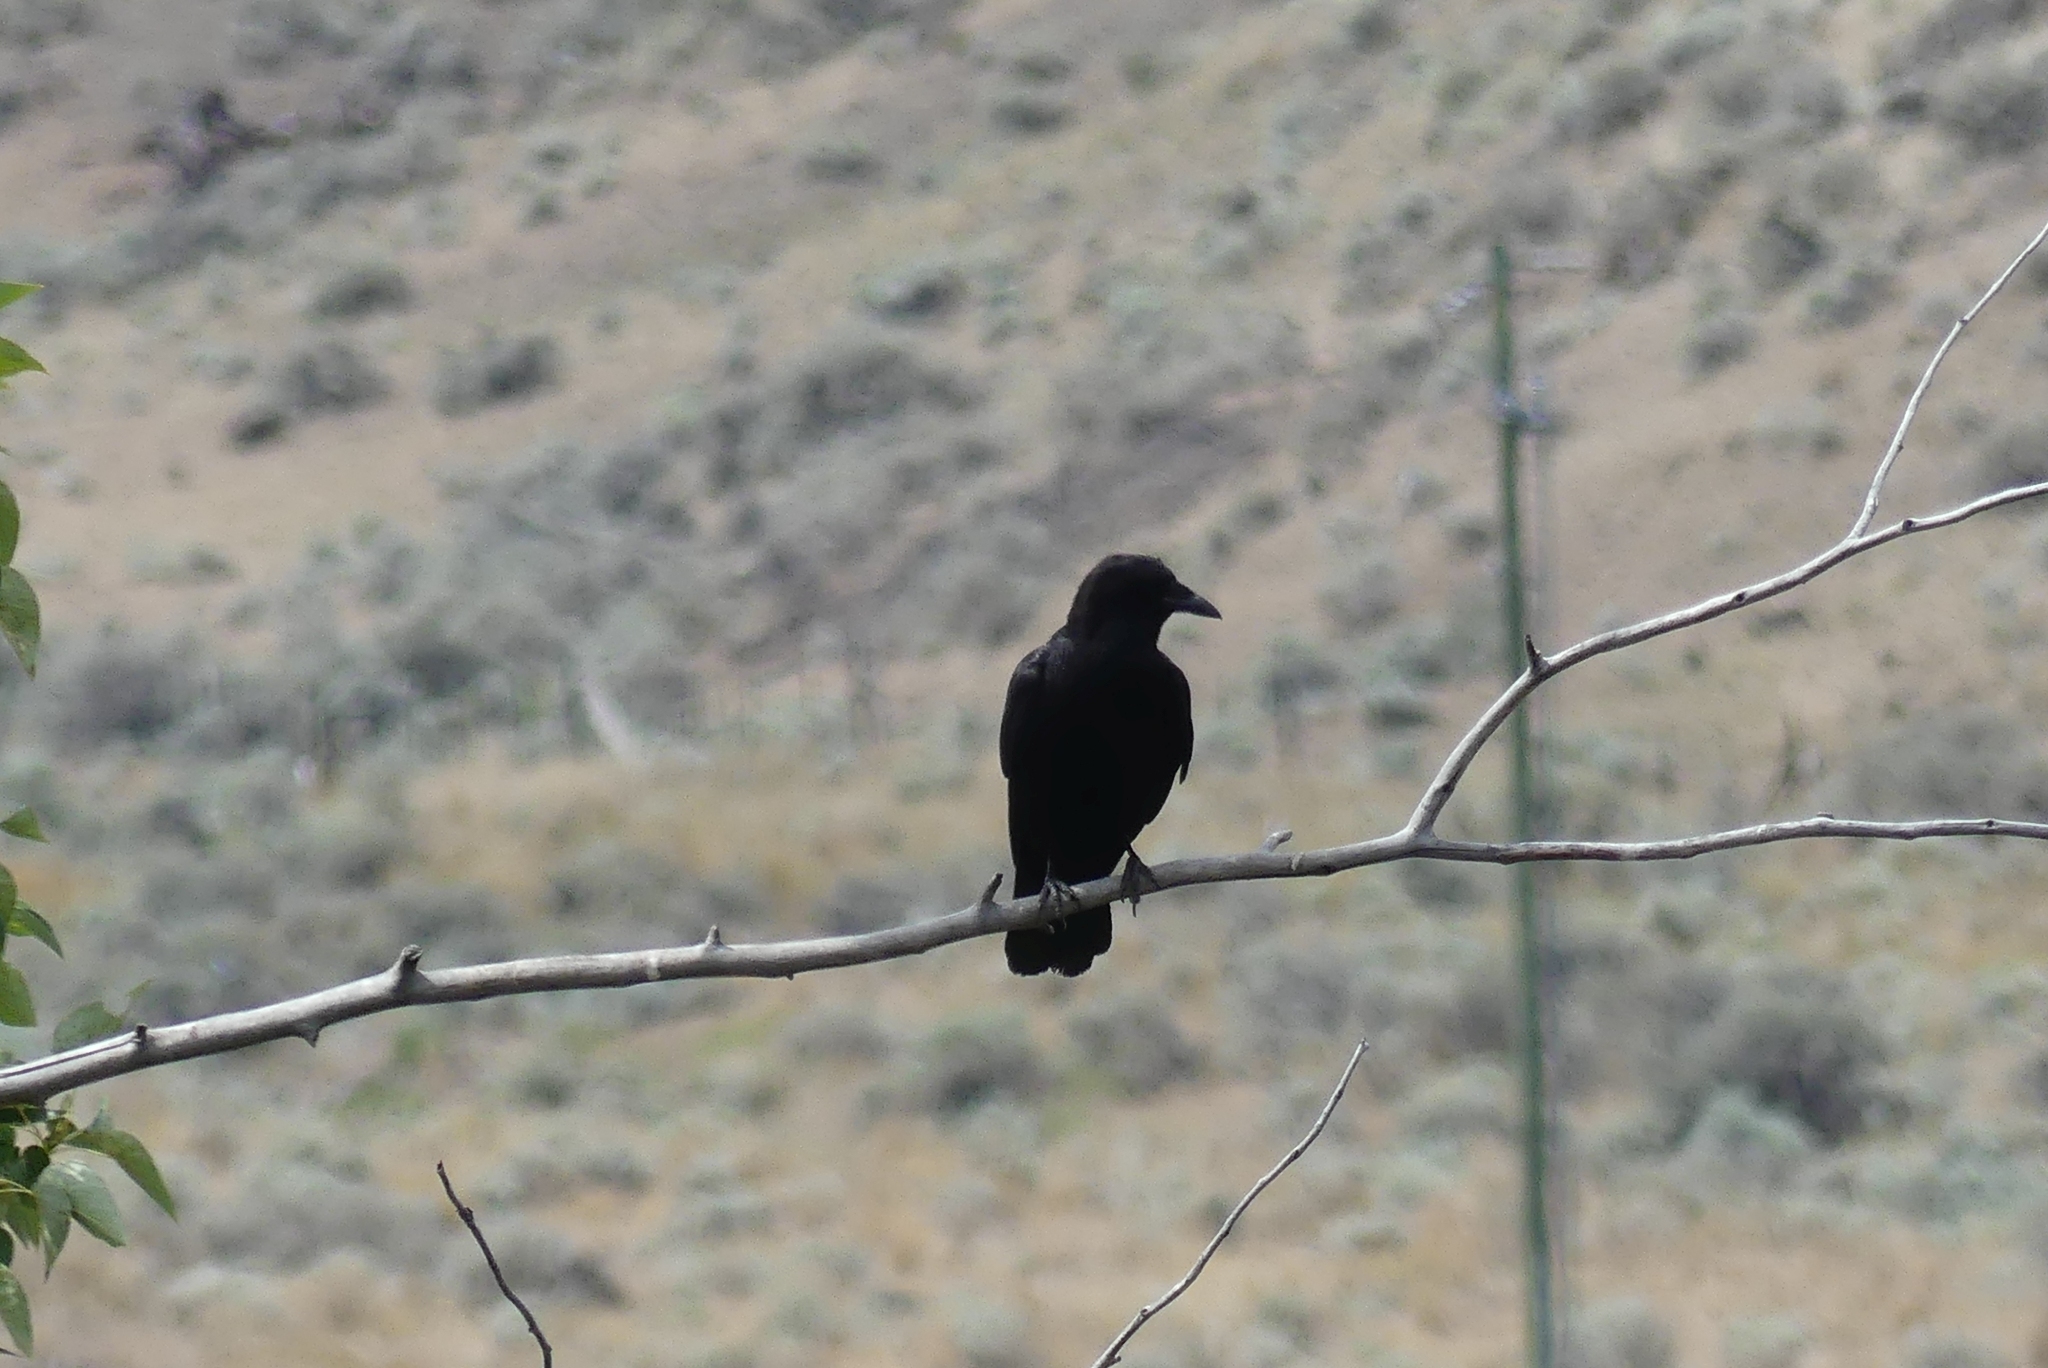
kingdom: Animalia
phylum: Chordata
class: Aves
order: Passeriformes
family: Corvidae
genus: Corvus
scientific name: Corvus brachyrhynchos
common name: American crow
